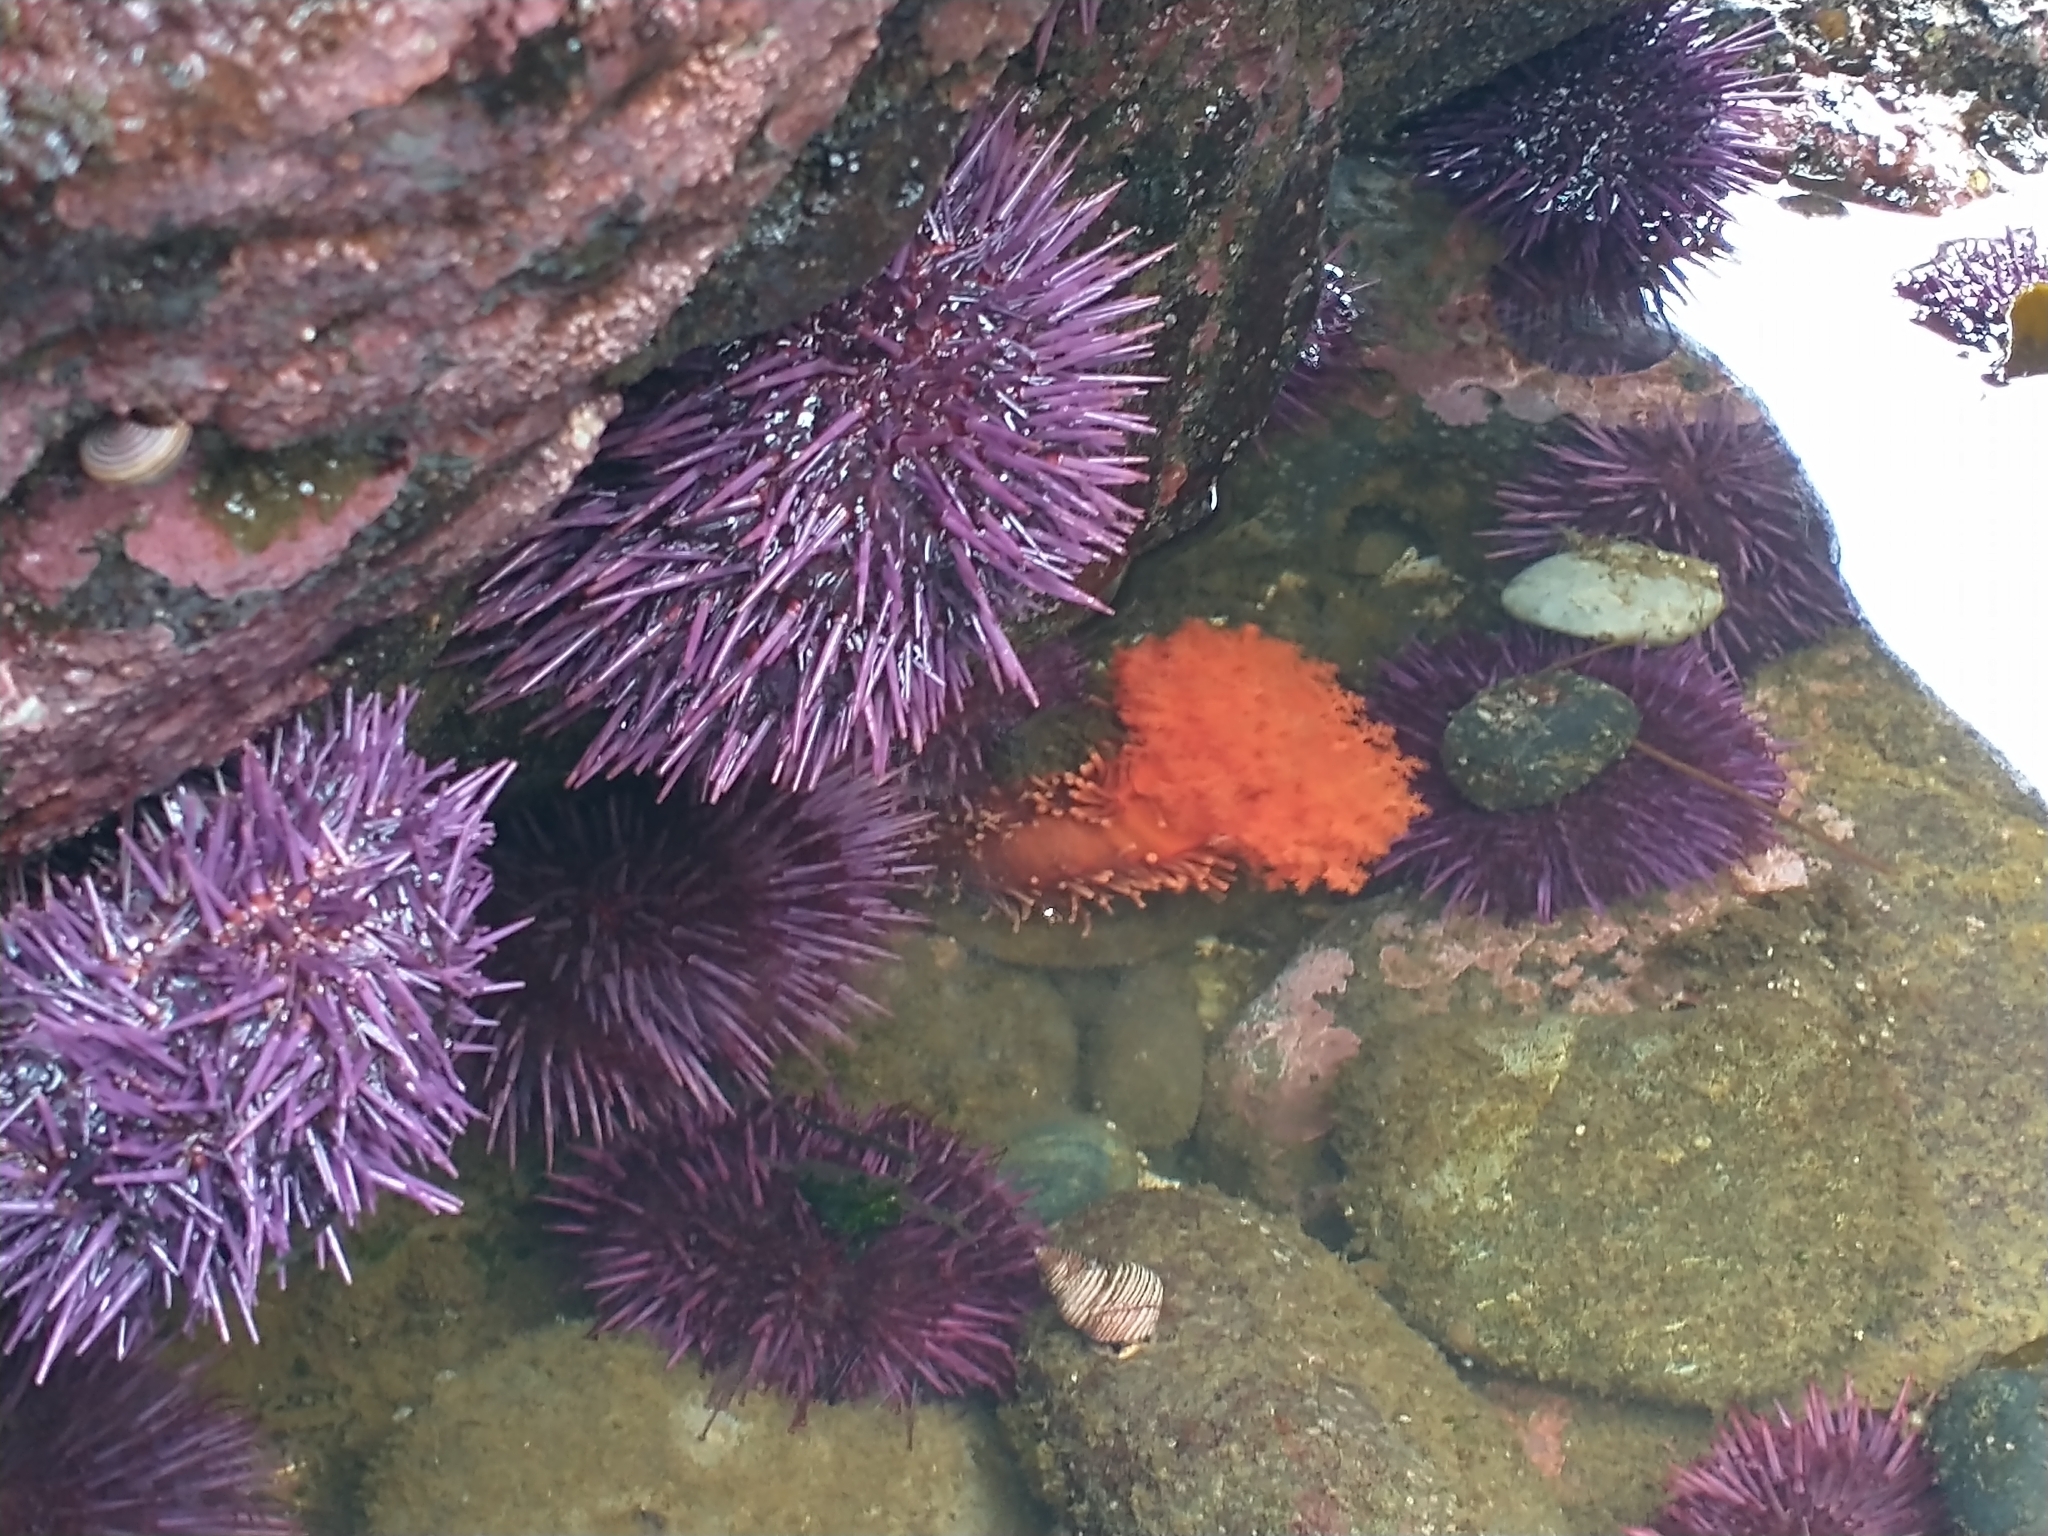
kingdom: Animalia
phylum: Echinodermata
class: Holothuroidea
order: Dendrochirotida
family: Cucumariidae
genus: Cucumaria
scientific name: Cucumaria miniata
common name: Orange sea cucumber
